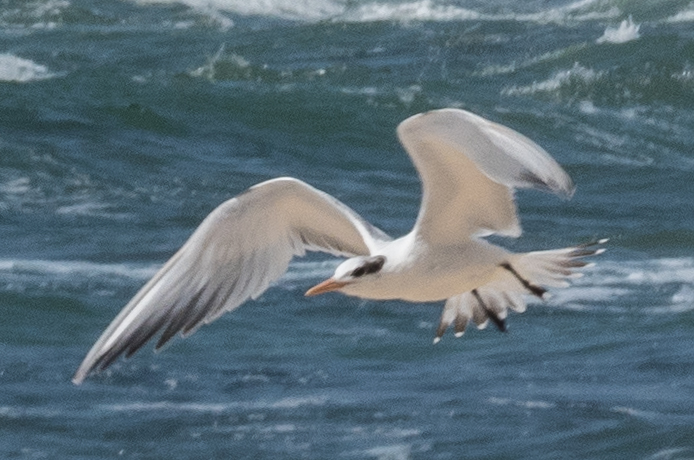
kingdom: Animalia
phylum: Chordata
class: Aves
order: Charadriiformes
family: Laridae
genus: Thalasseus
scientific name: Thalasseus maximus
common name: Royal tern
